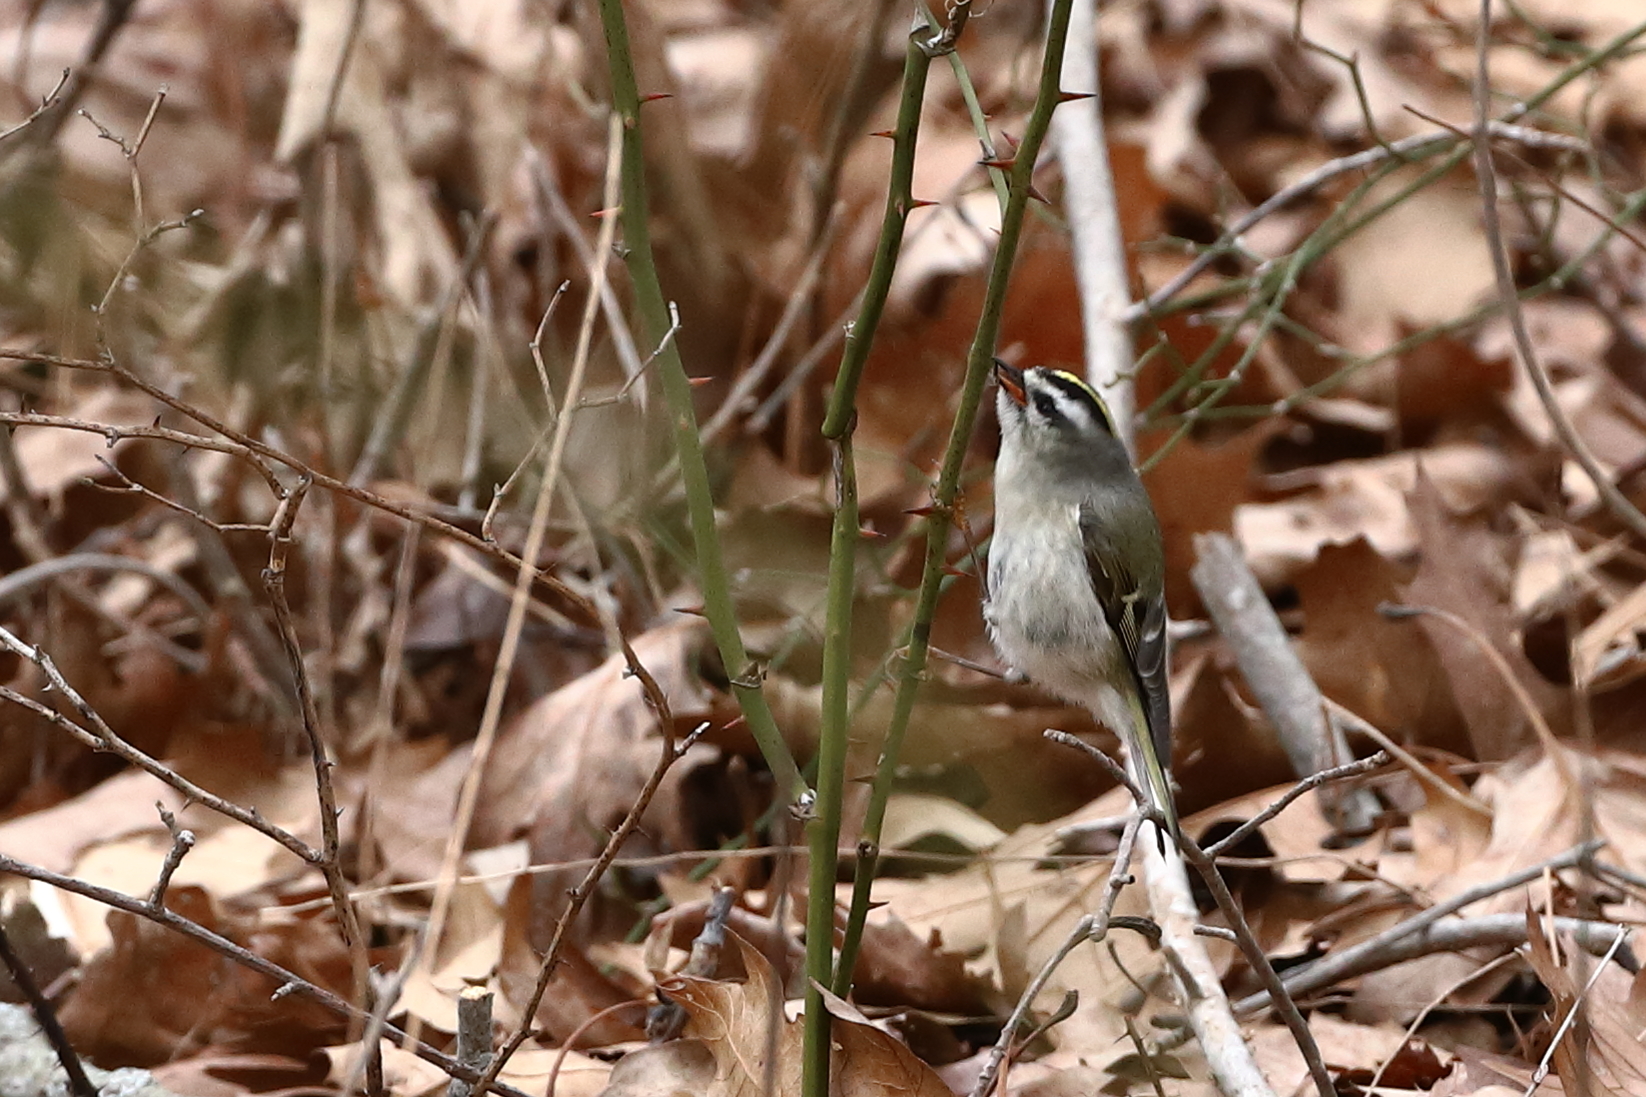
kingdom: Animalia
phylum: Chordata
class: Aves
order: Passeriformes
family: Regulidae
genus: Regulus
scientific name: Regulus satrapa
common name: Golden-crowned kinglet
